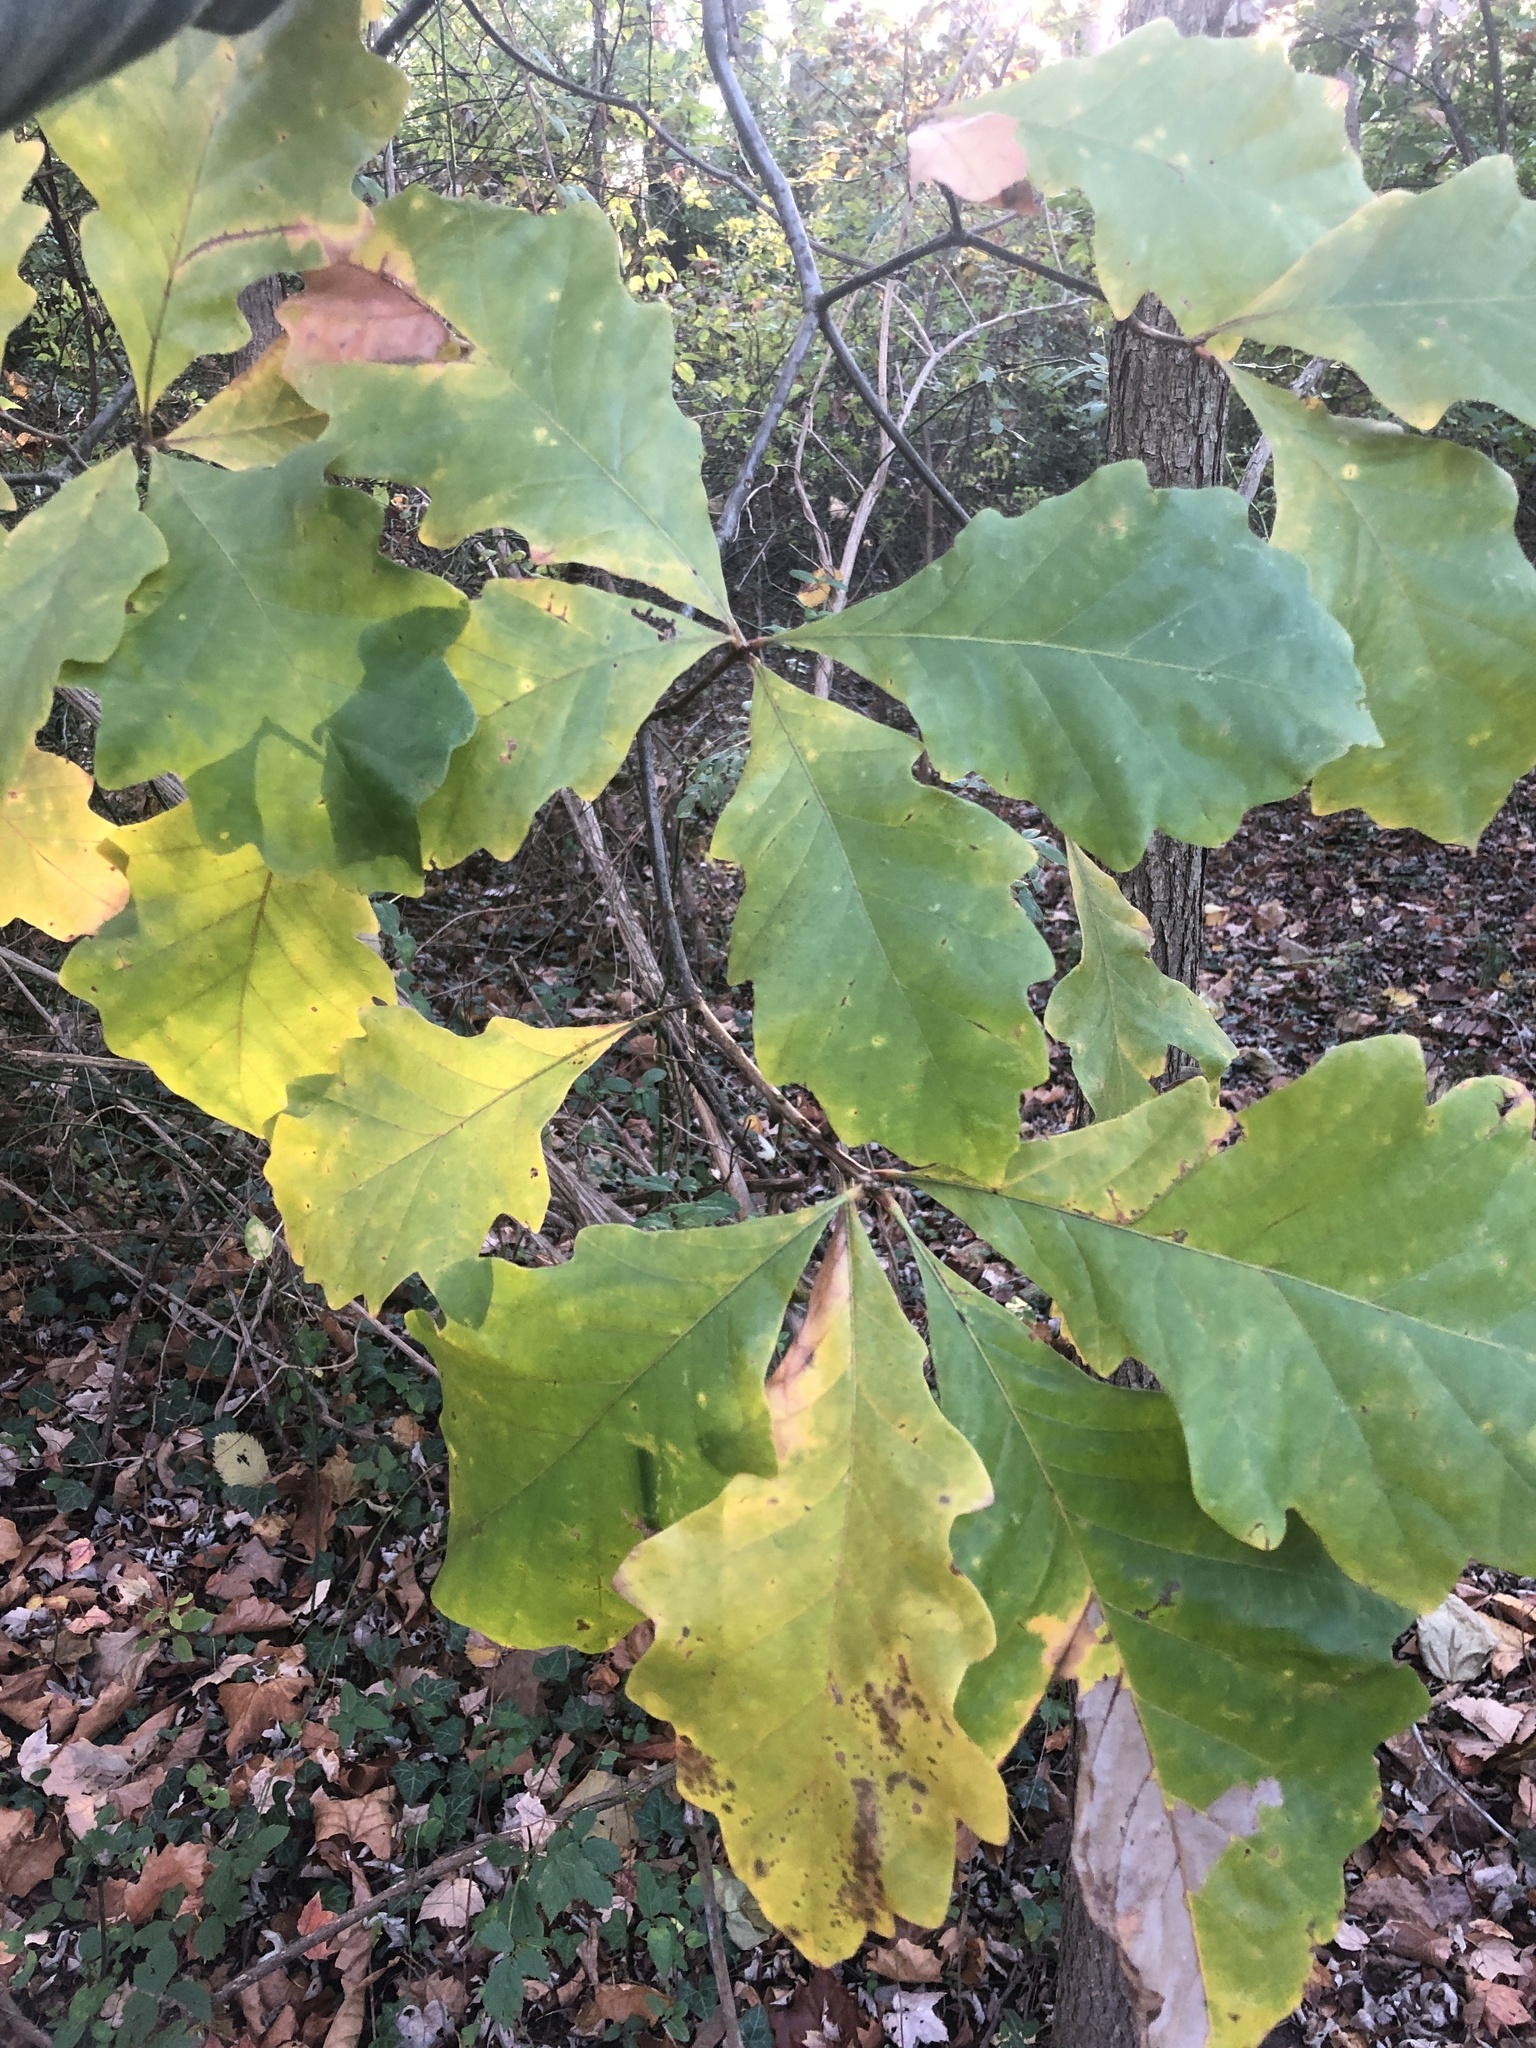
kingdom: Plantae
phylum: Tracheophyta
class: Magnoliopsida
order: Fagales
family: Fagaceae
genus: Quercus
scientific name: Quercus bicolor
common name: Swamp white oak
